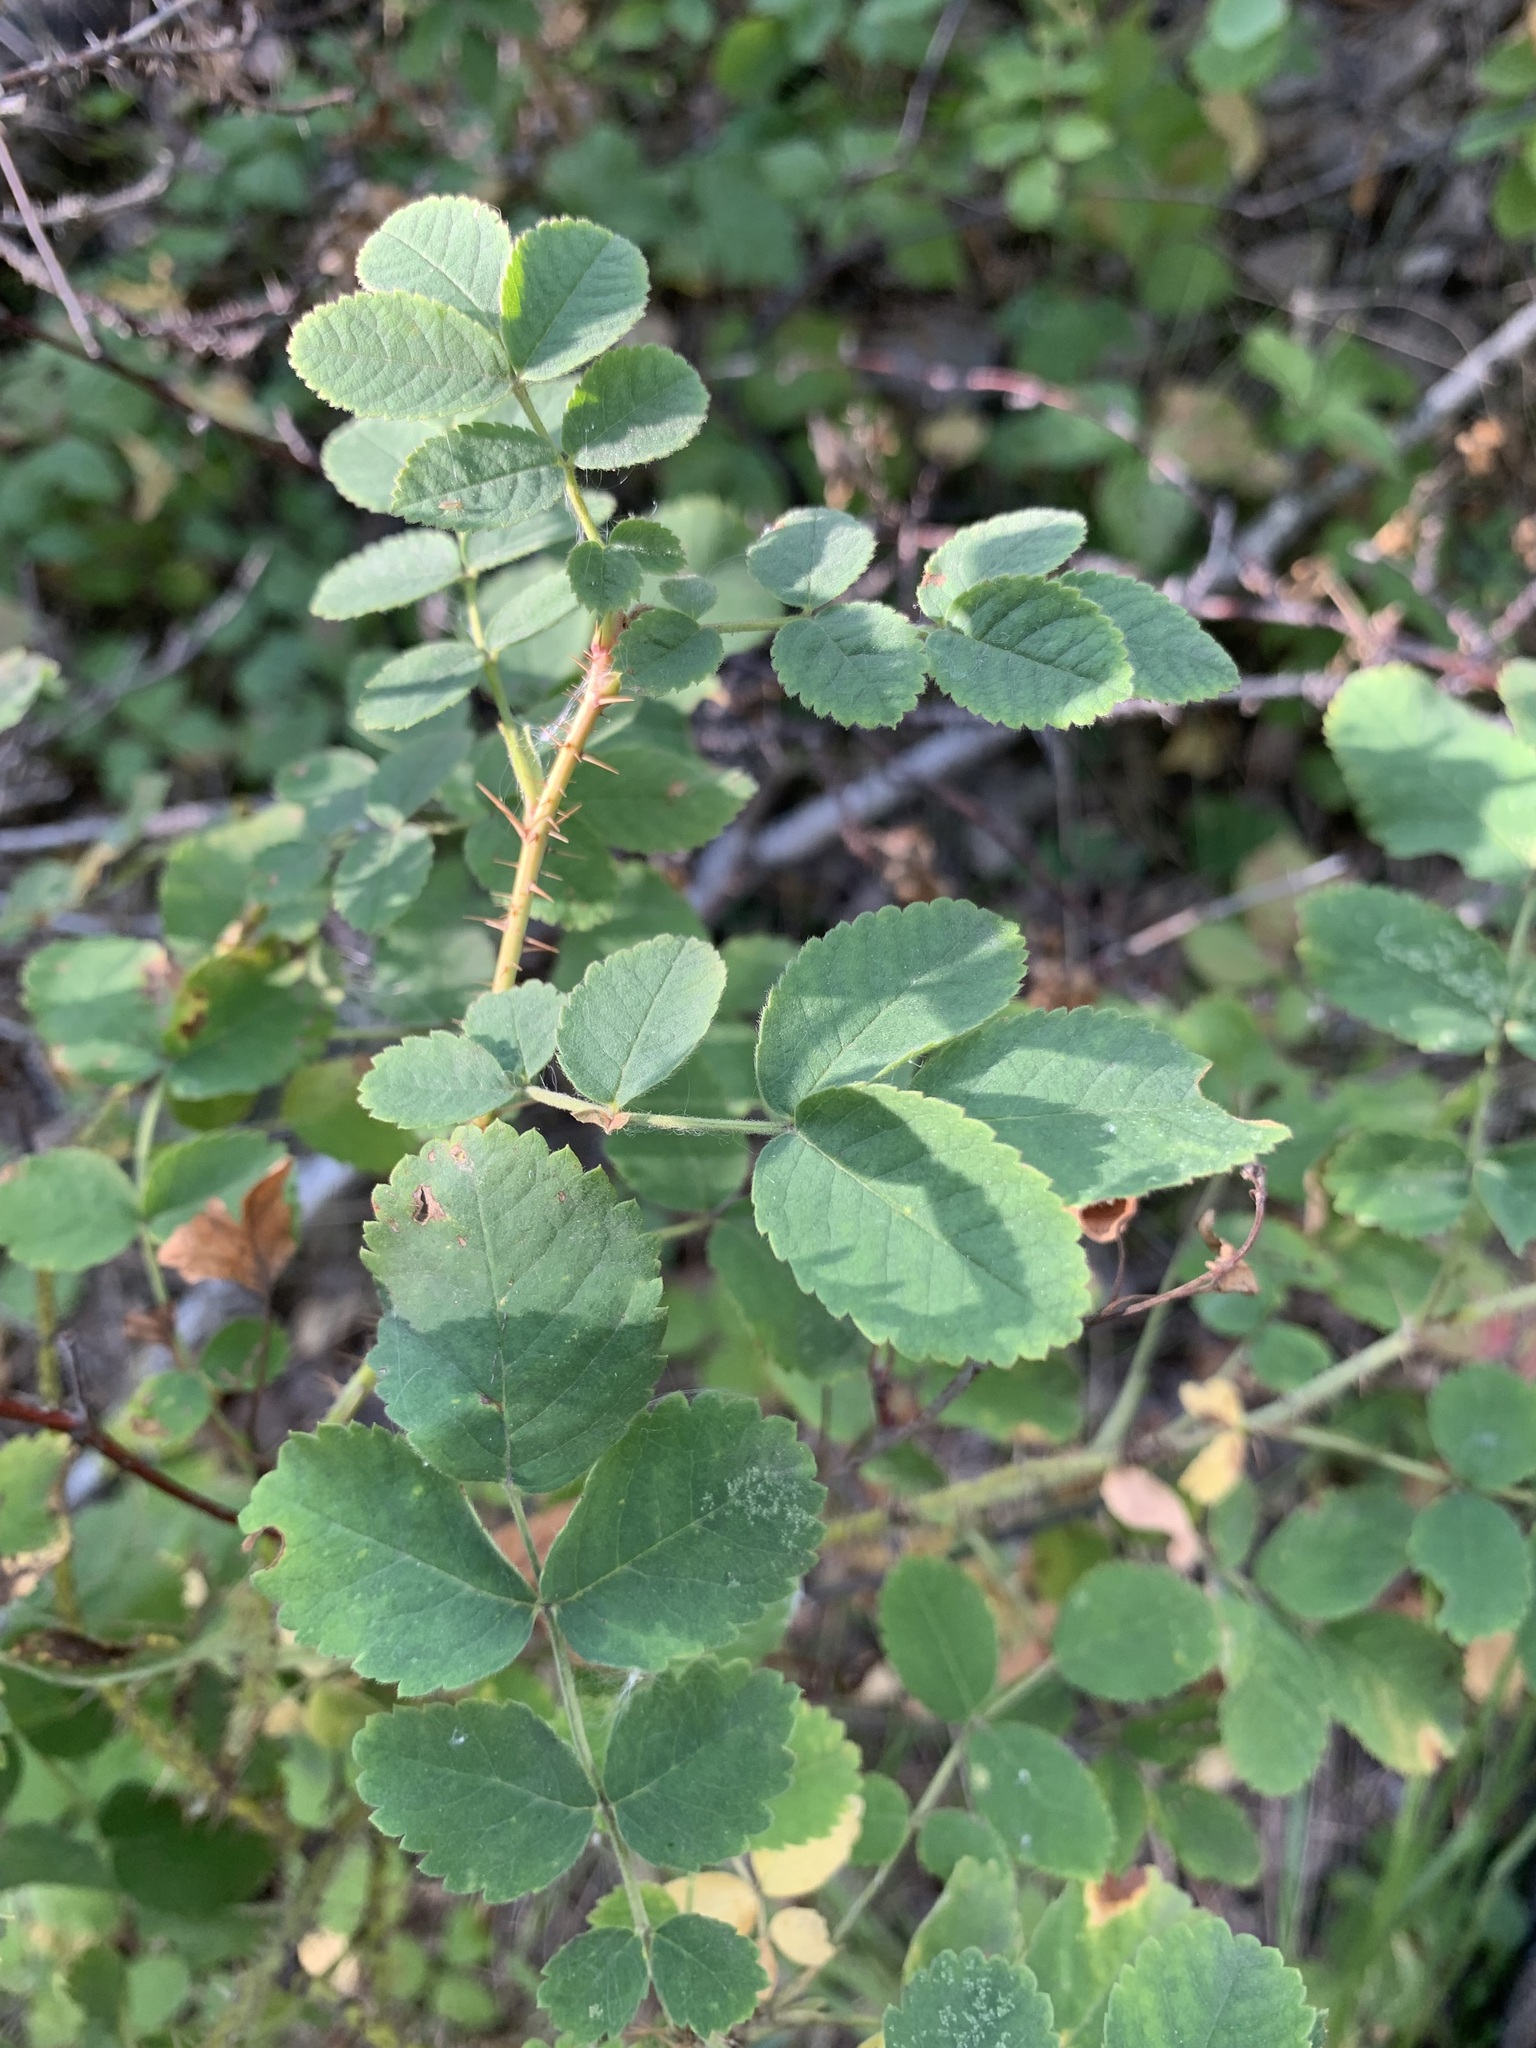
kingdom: Plantae
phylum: Tracheophyta
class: Magnoliopsida
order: Rosales
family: Rosaceae
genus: Rosa
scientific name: Rosa acicularis
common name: Prickly rose
